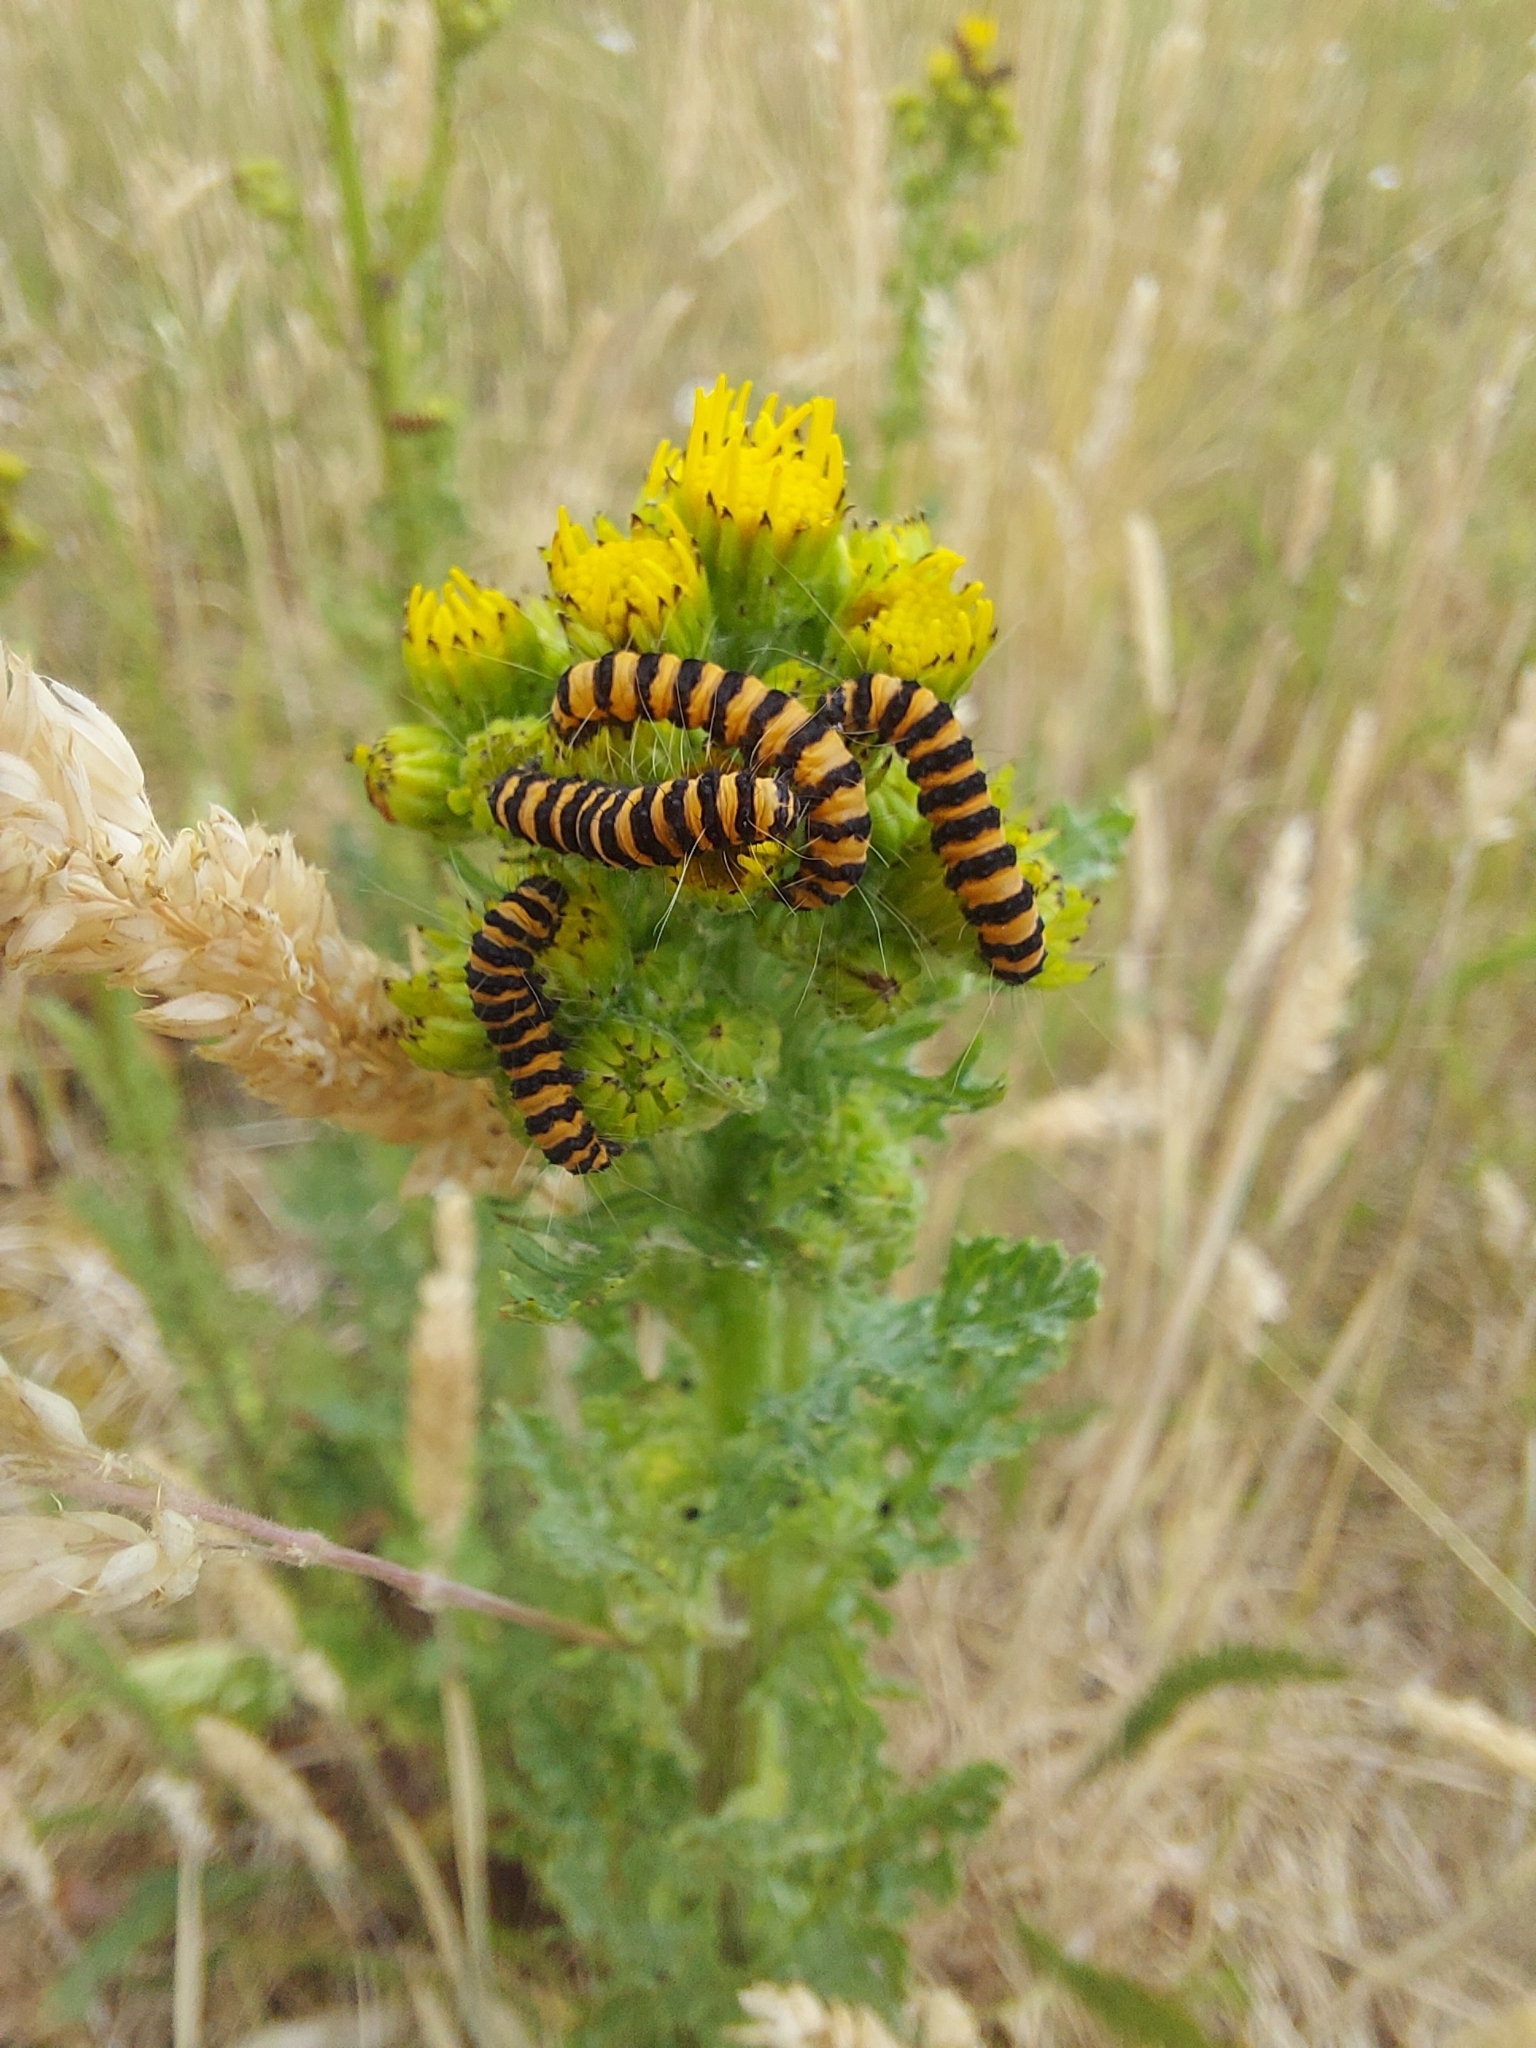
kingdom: Animalia
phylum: Arthropoda
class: Insecta
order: Lepidoptera
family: Erebidae
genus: Tyria
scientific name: Tyria jacobaeae
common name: Cinnabar
